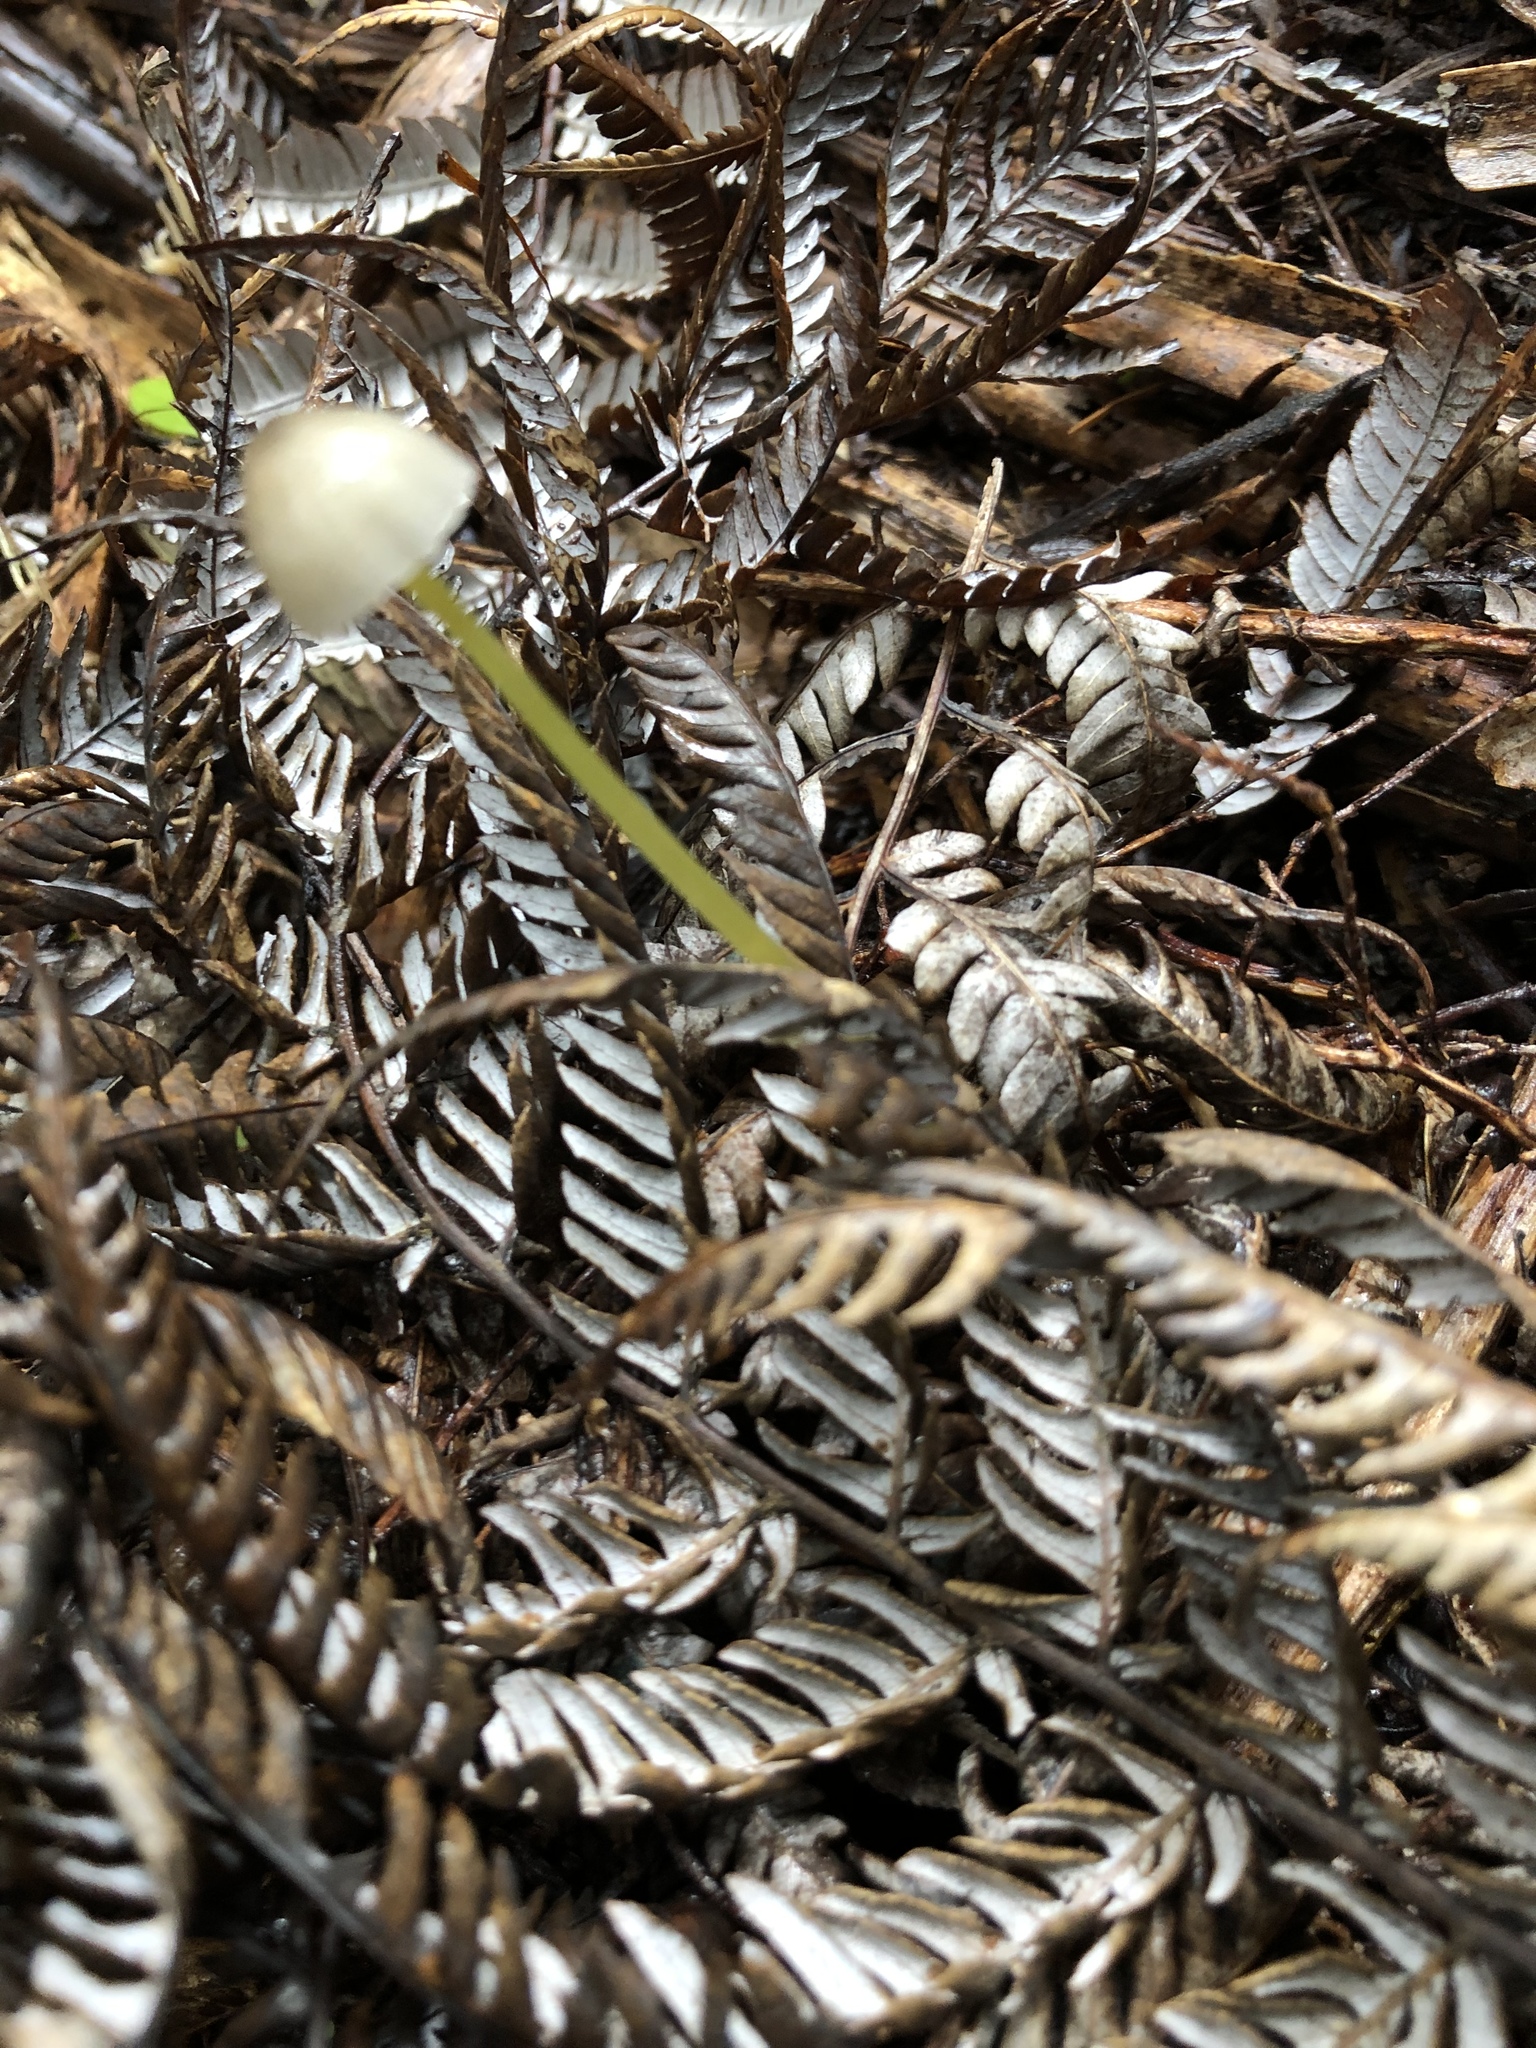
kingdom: Fungi
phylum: Basidiomycota
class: Agaricomycetes
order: Agaricales
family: Mycenaceae
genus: Mycena
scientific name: Mycena subviscosa
